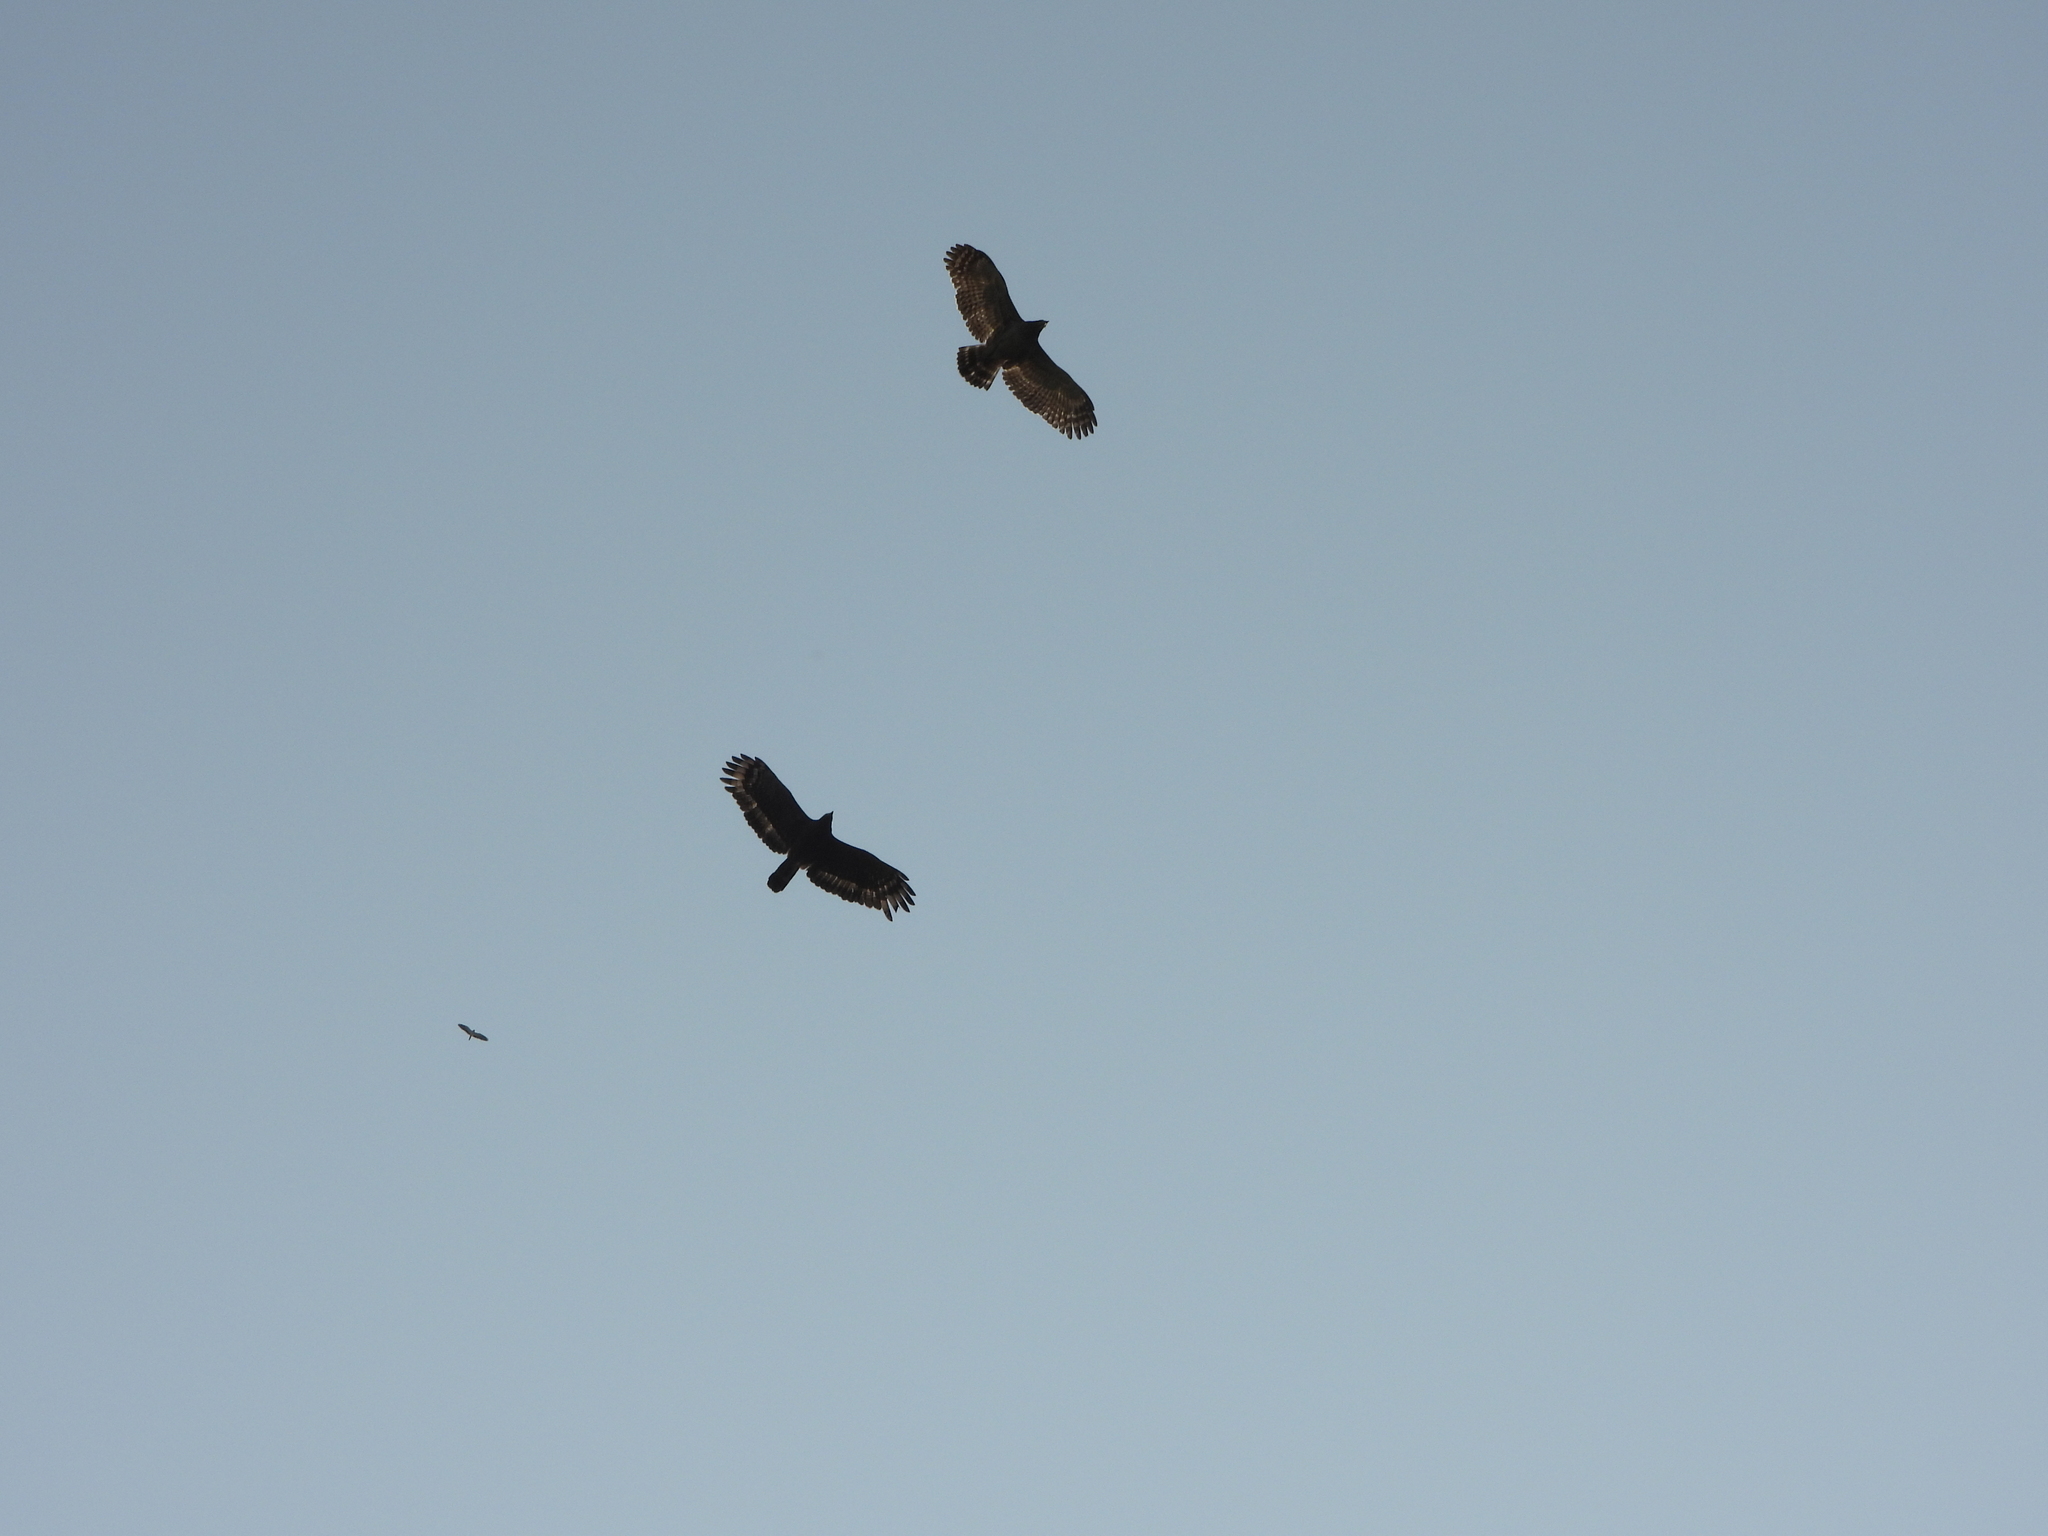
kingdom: Animalia
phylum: Chordata
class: Aves
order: Accipitriformes
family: Accipitridae
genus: Spilornis
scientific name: Spilornis cheela
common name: Crested serpent eagle
